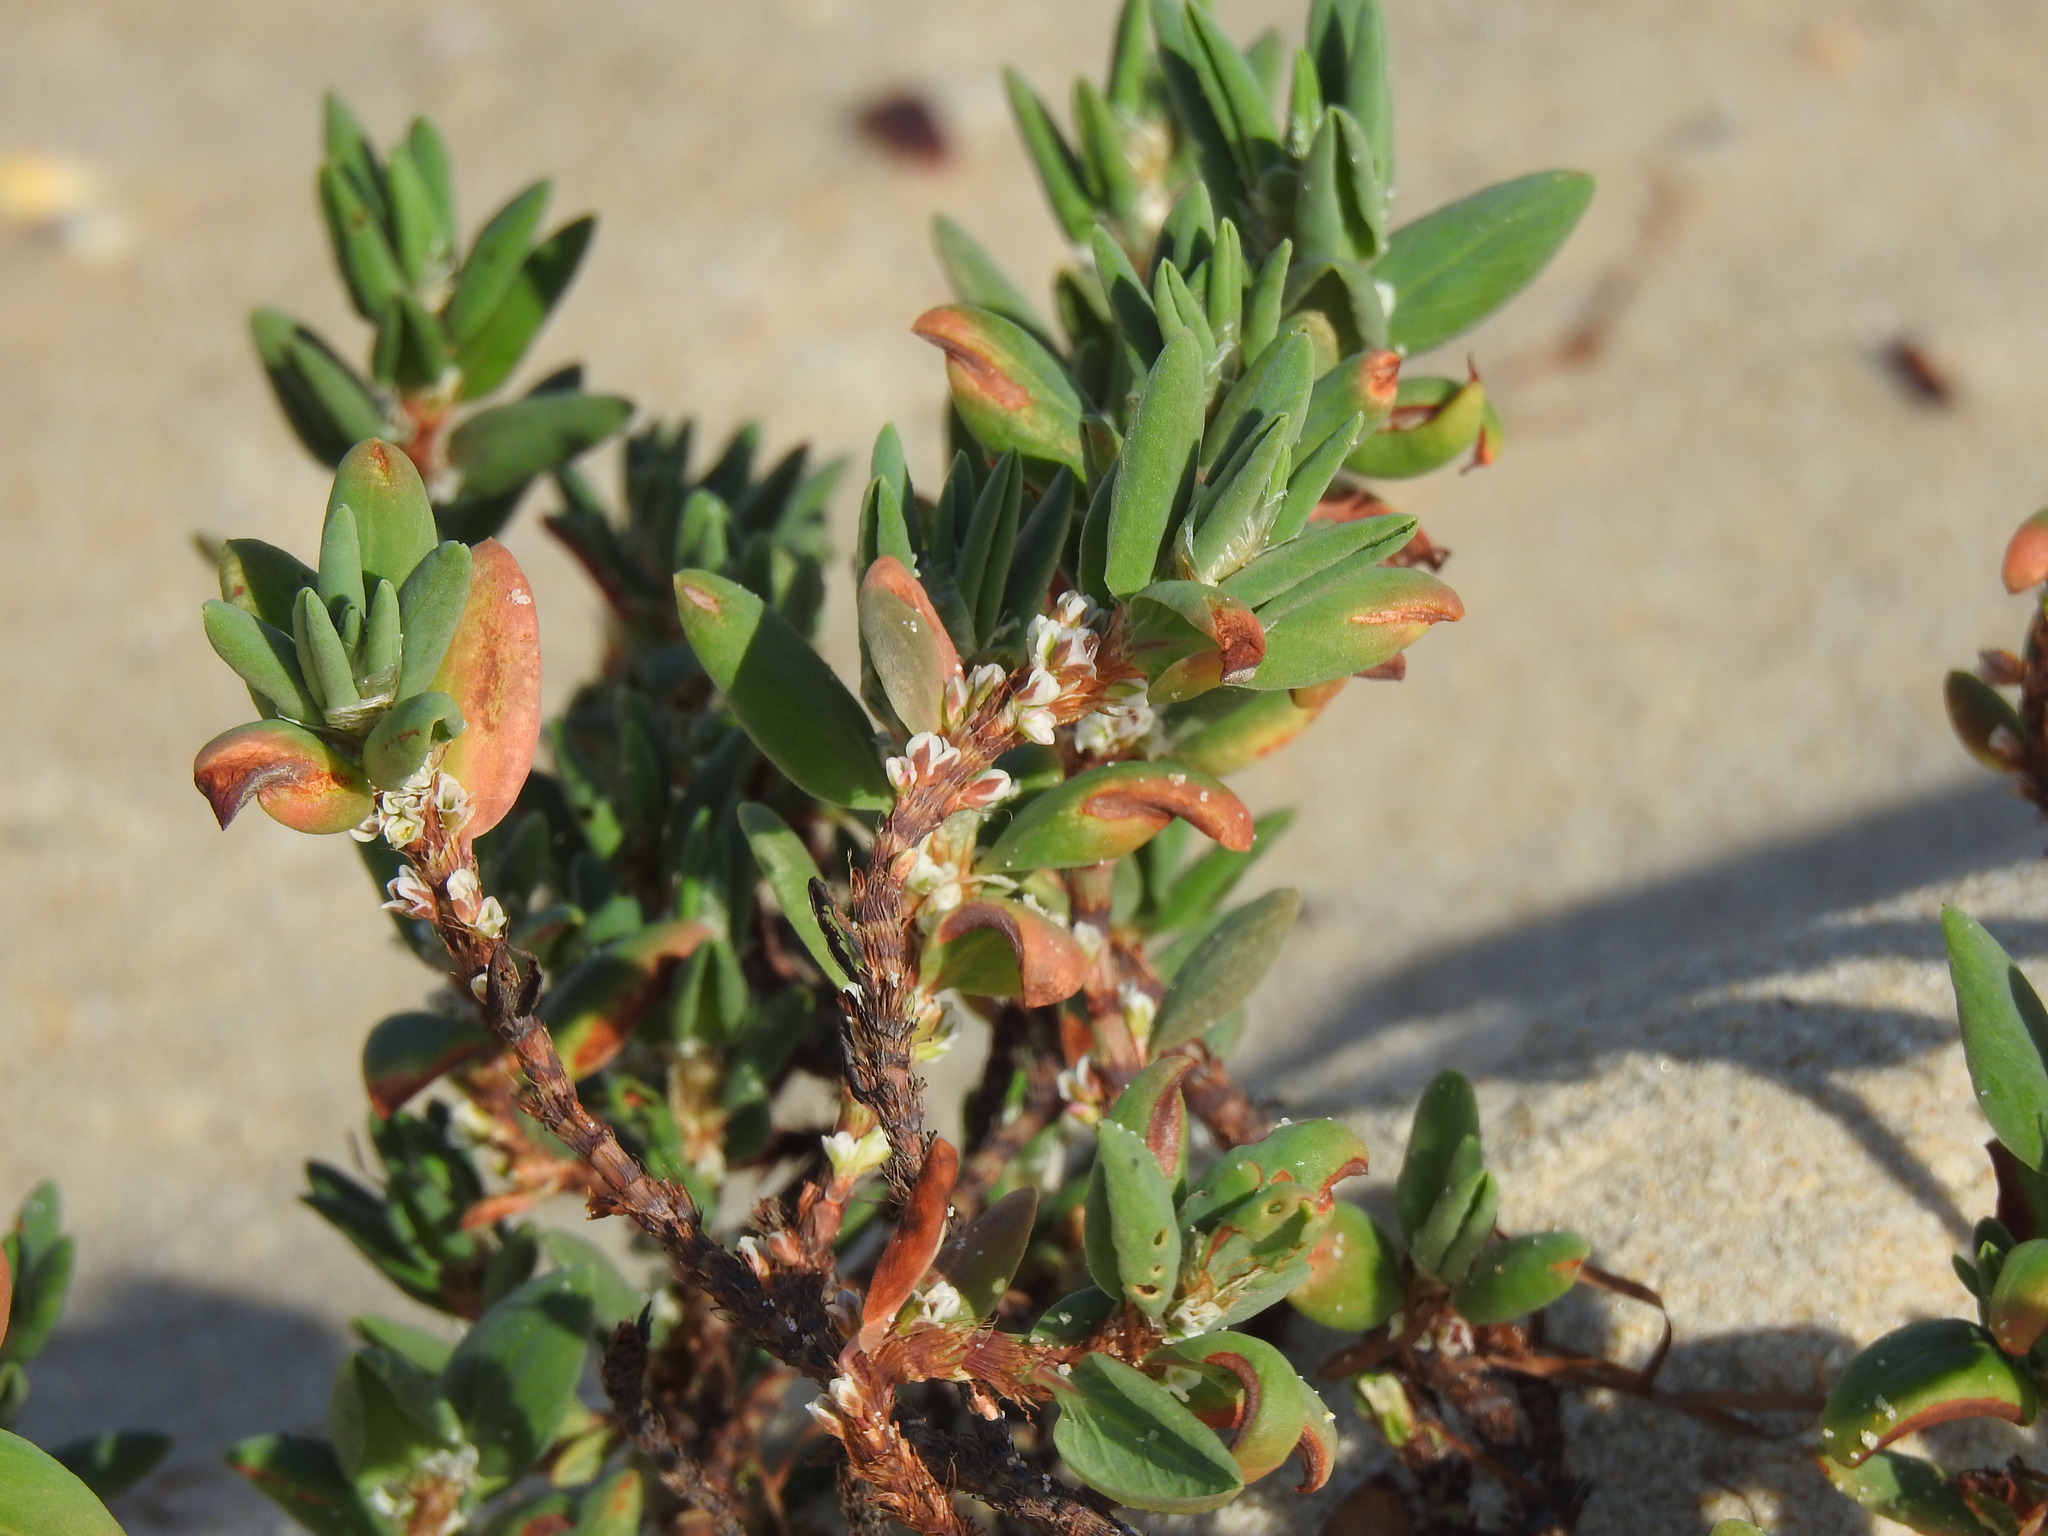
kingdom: Plantae
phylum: Tracheophyta
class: Magnoliopsida
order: Caryophyllales
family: Polygonaceae
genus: Polygonum
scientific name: Polygonum maritimum
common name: Sea knotgrass
